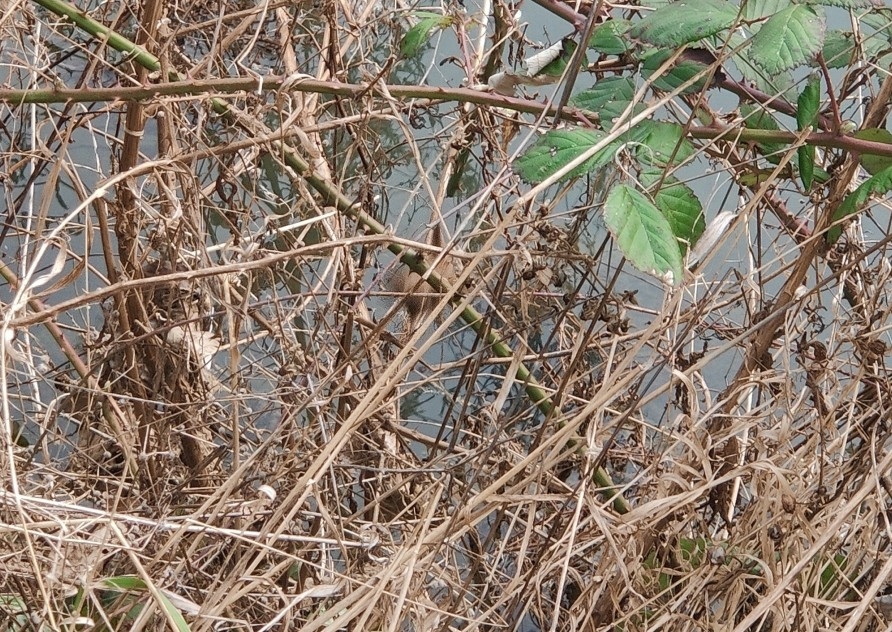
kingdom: Animalia
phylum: Chordata
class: Aves
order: Passeriformes
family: Troglodytidae
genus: Troglodytes
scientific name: Troglodytes troglodytes
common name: Eurasian wren
